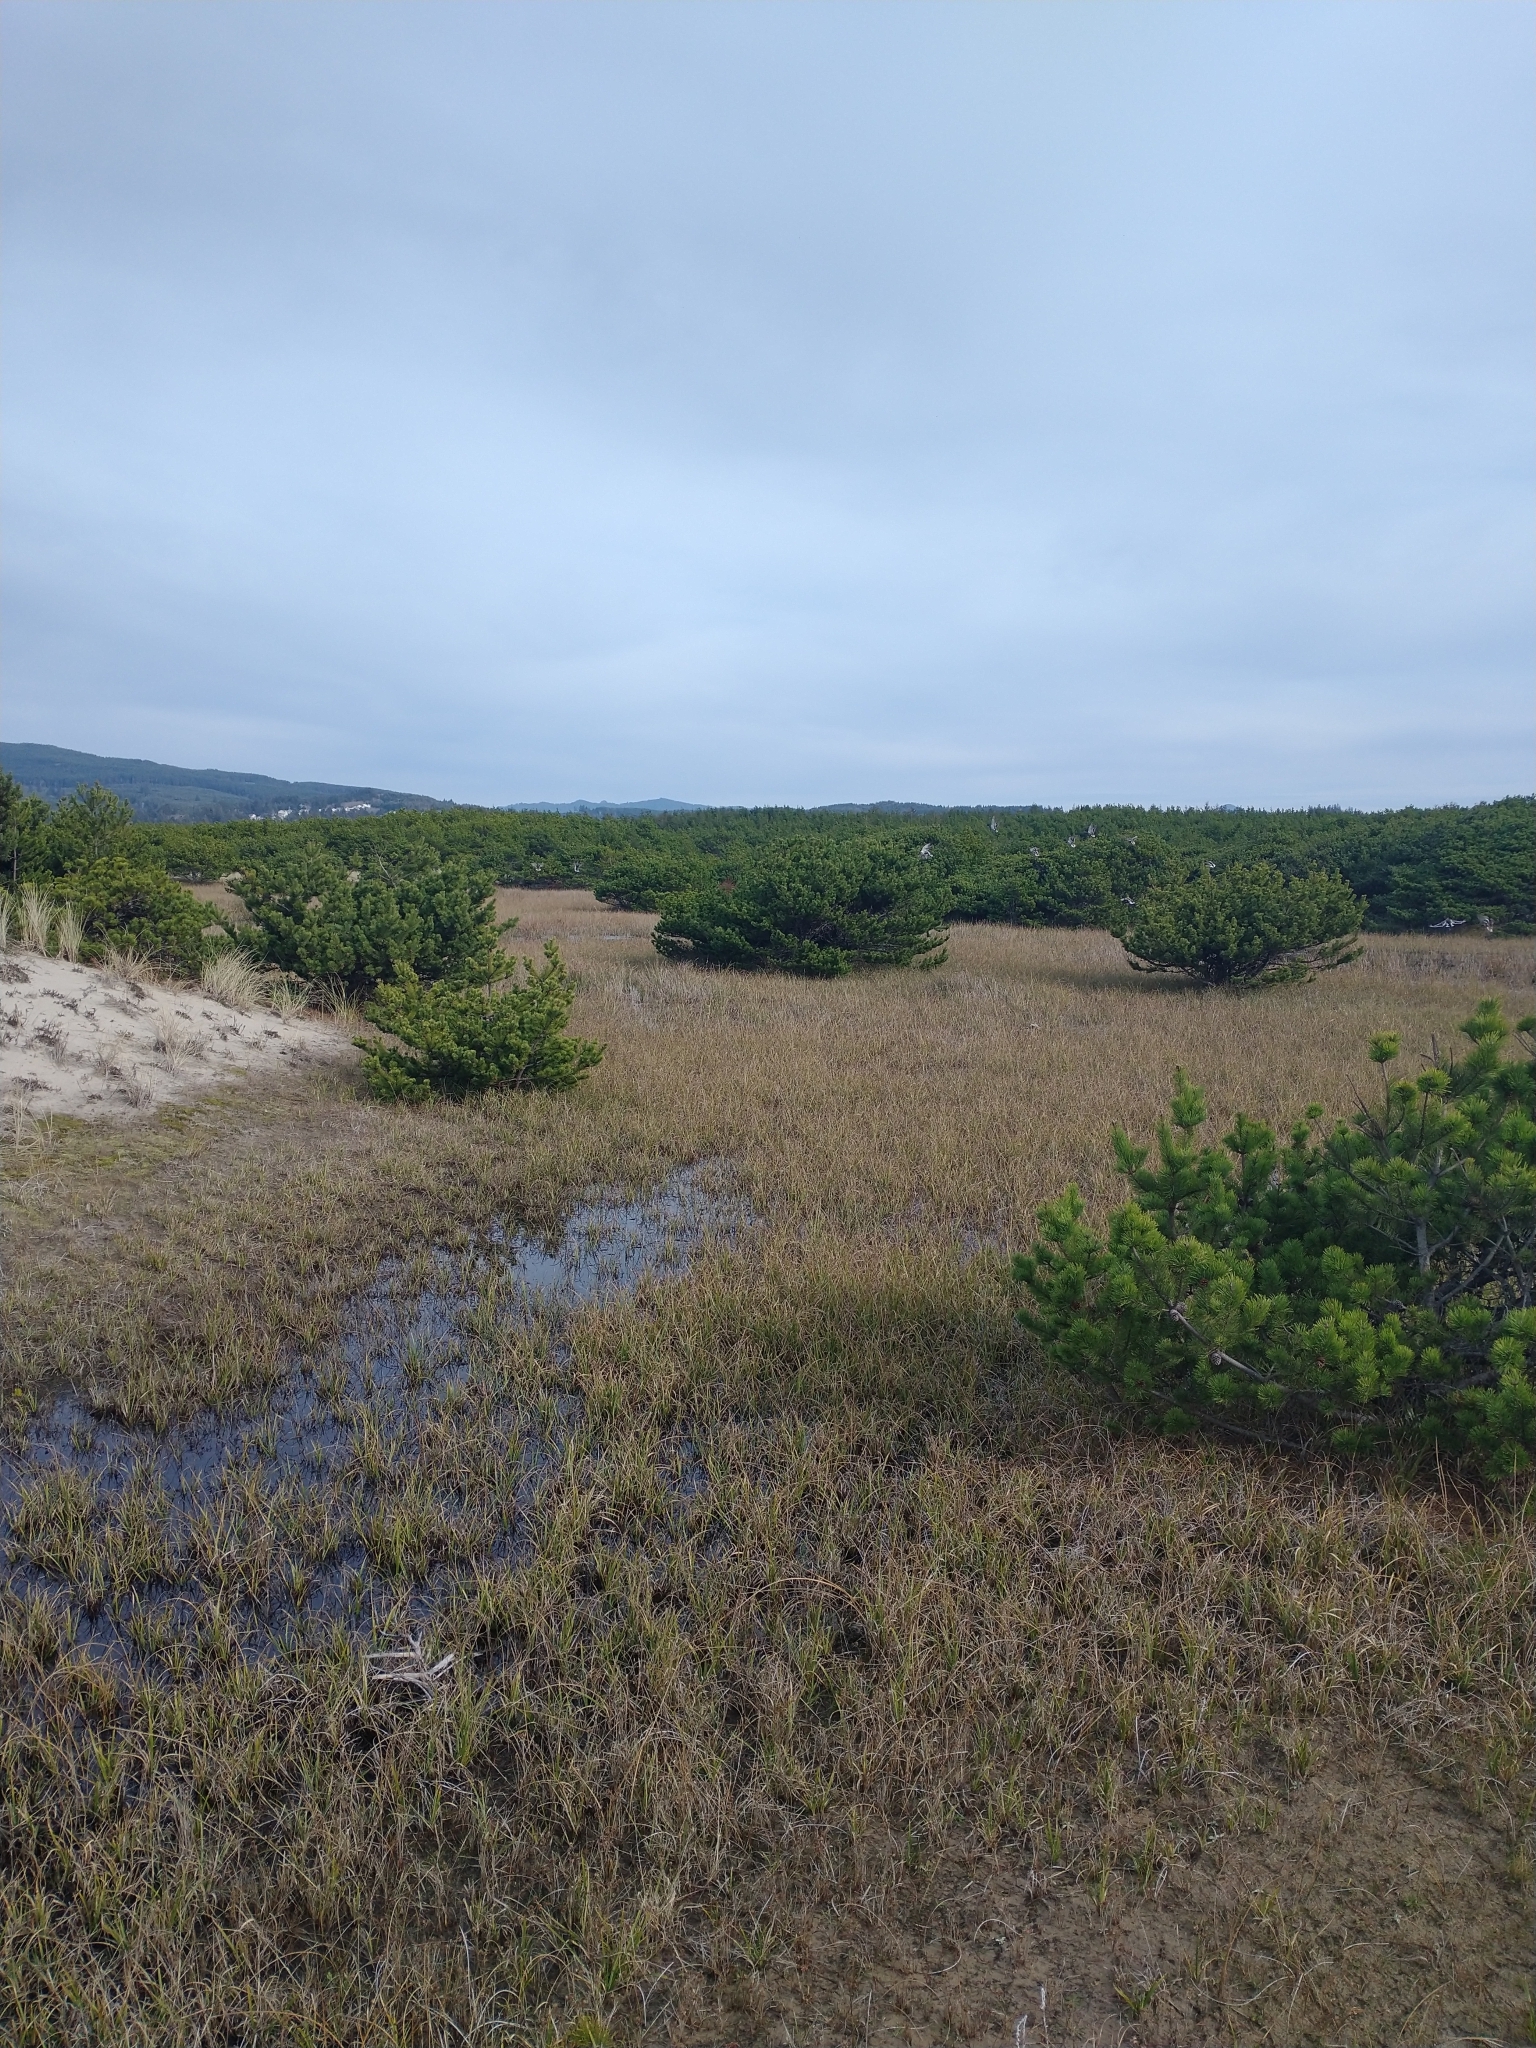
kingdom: Plantae
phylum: Tracheophyta
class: Pinopsida
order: Pinales
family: Pinaceae
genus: Pinus
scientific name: Pinus contorta
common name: Lodgepole pine
